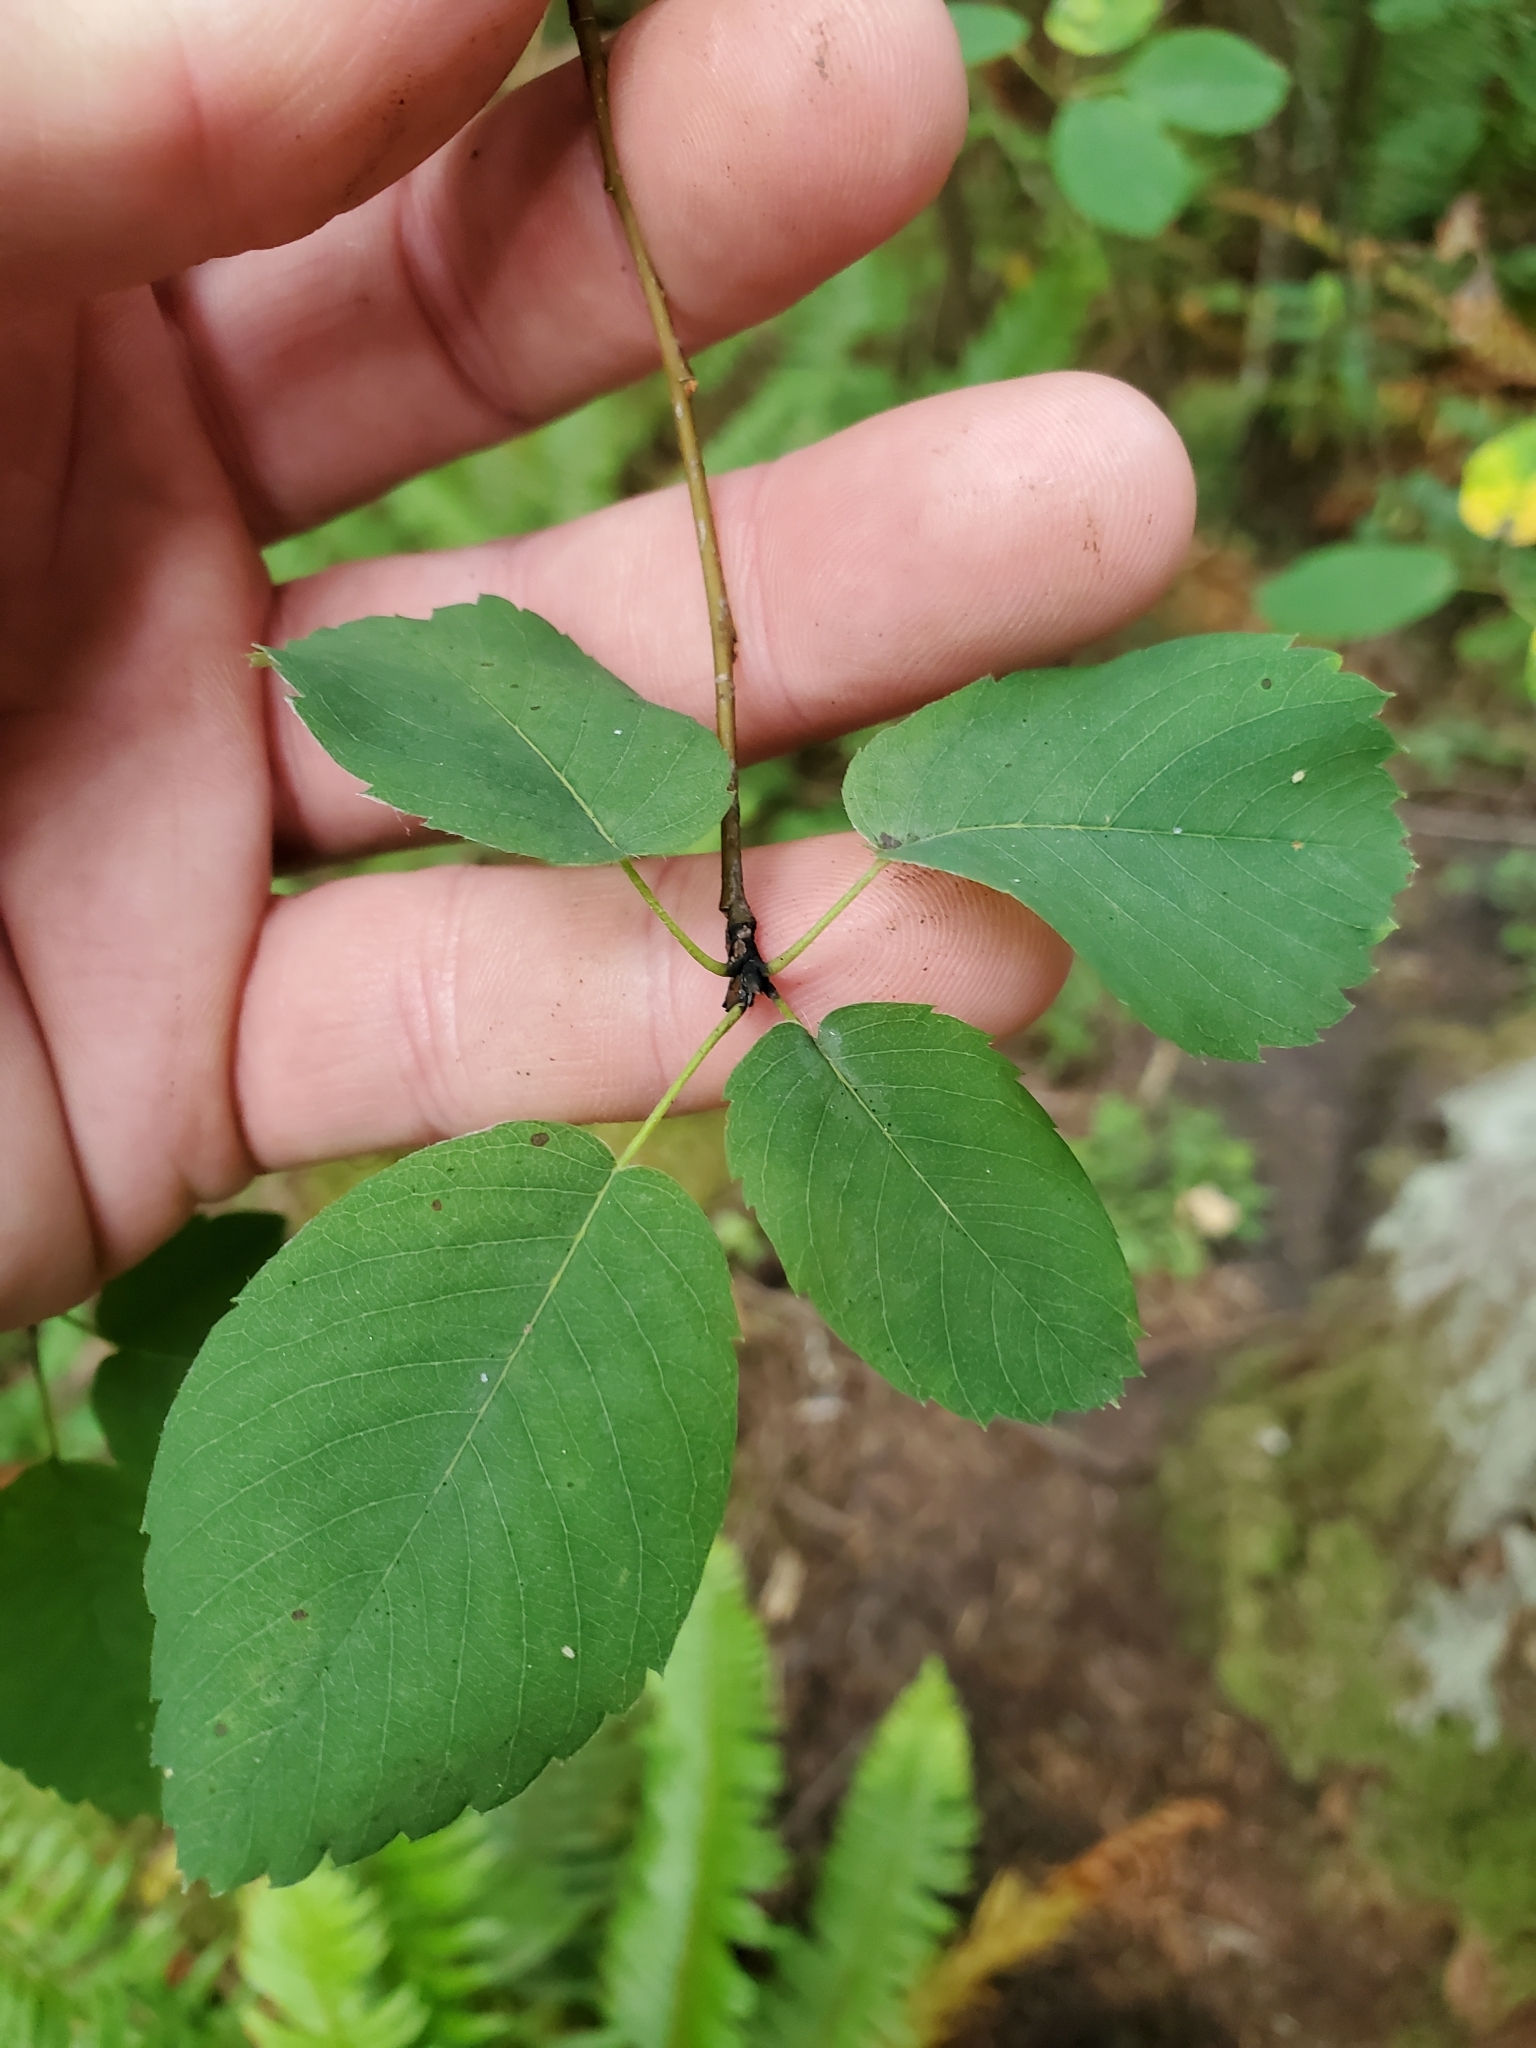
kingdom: Plantae
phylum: Tracheophyta
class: Magnoliopsida
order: Rosales
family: Rosaceae
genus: Amelanchier
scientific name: Amelanchier alnifolia
